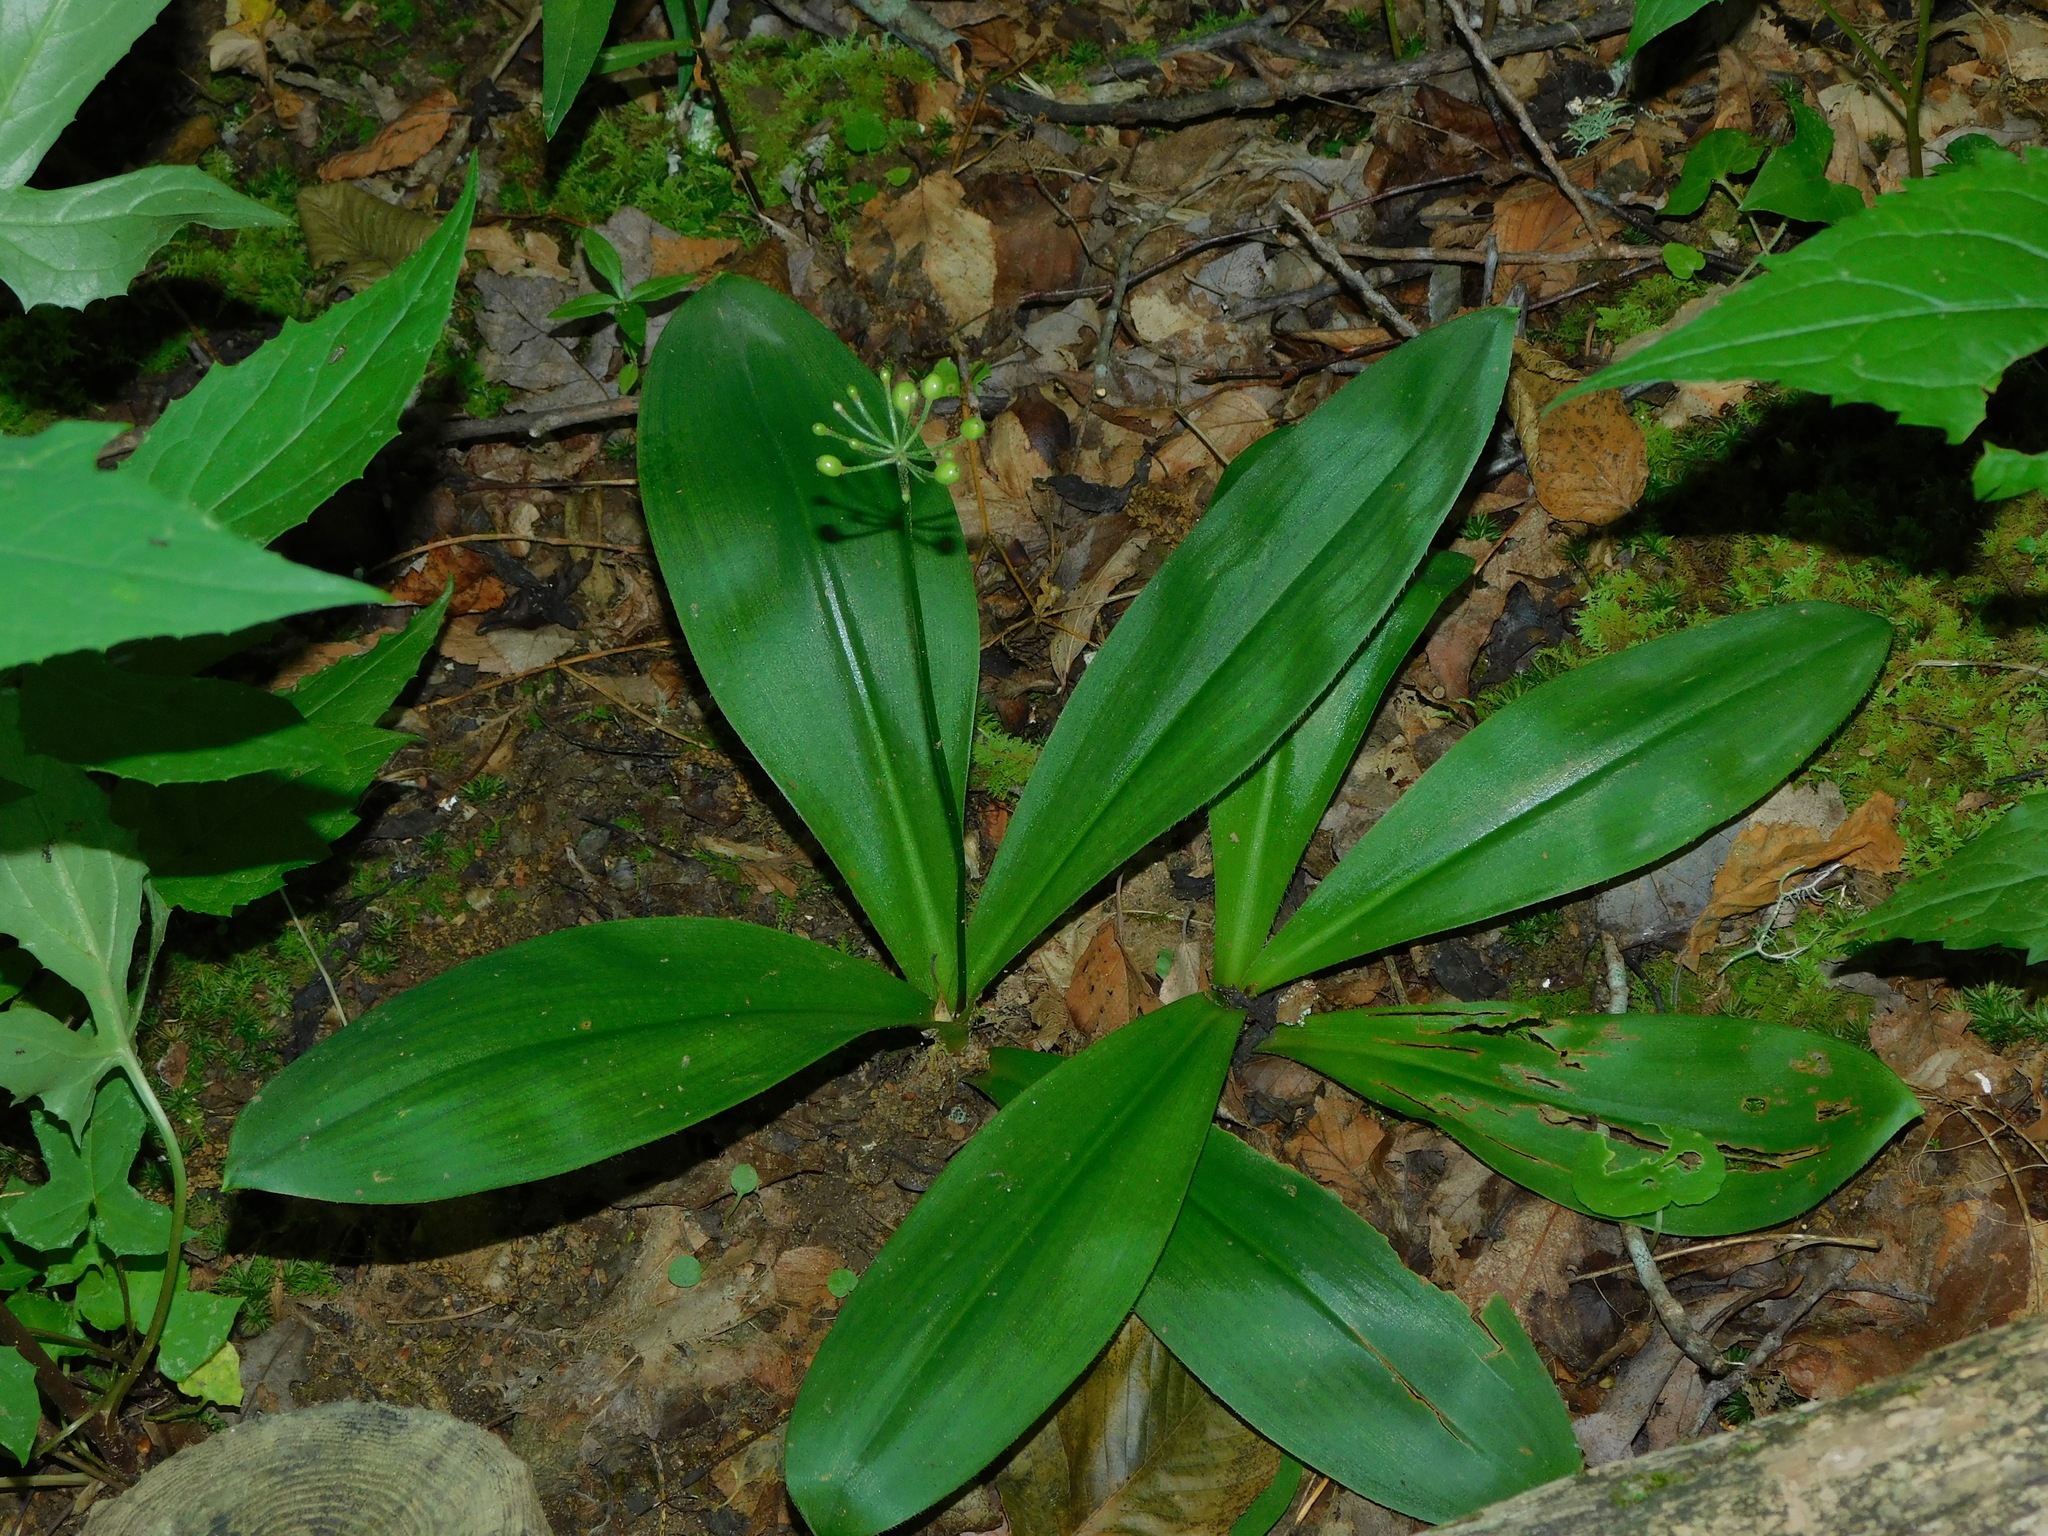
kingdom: Plantae
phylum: Tracheophyta
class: Liliopsida
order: Liliales
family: Liliaceae
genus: Clintonia
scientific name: Clintonia umbellulata
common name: Speckle wood-lily
